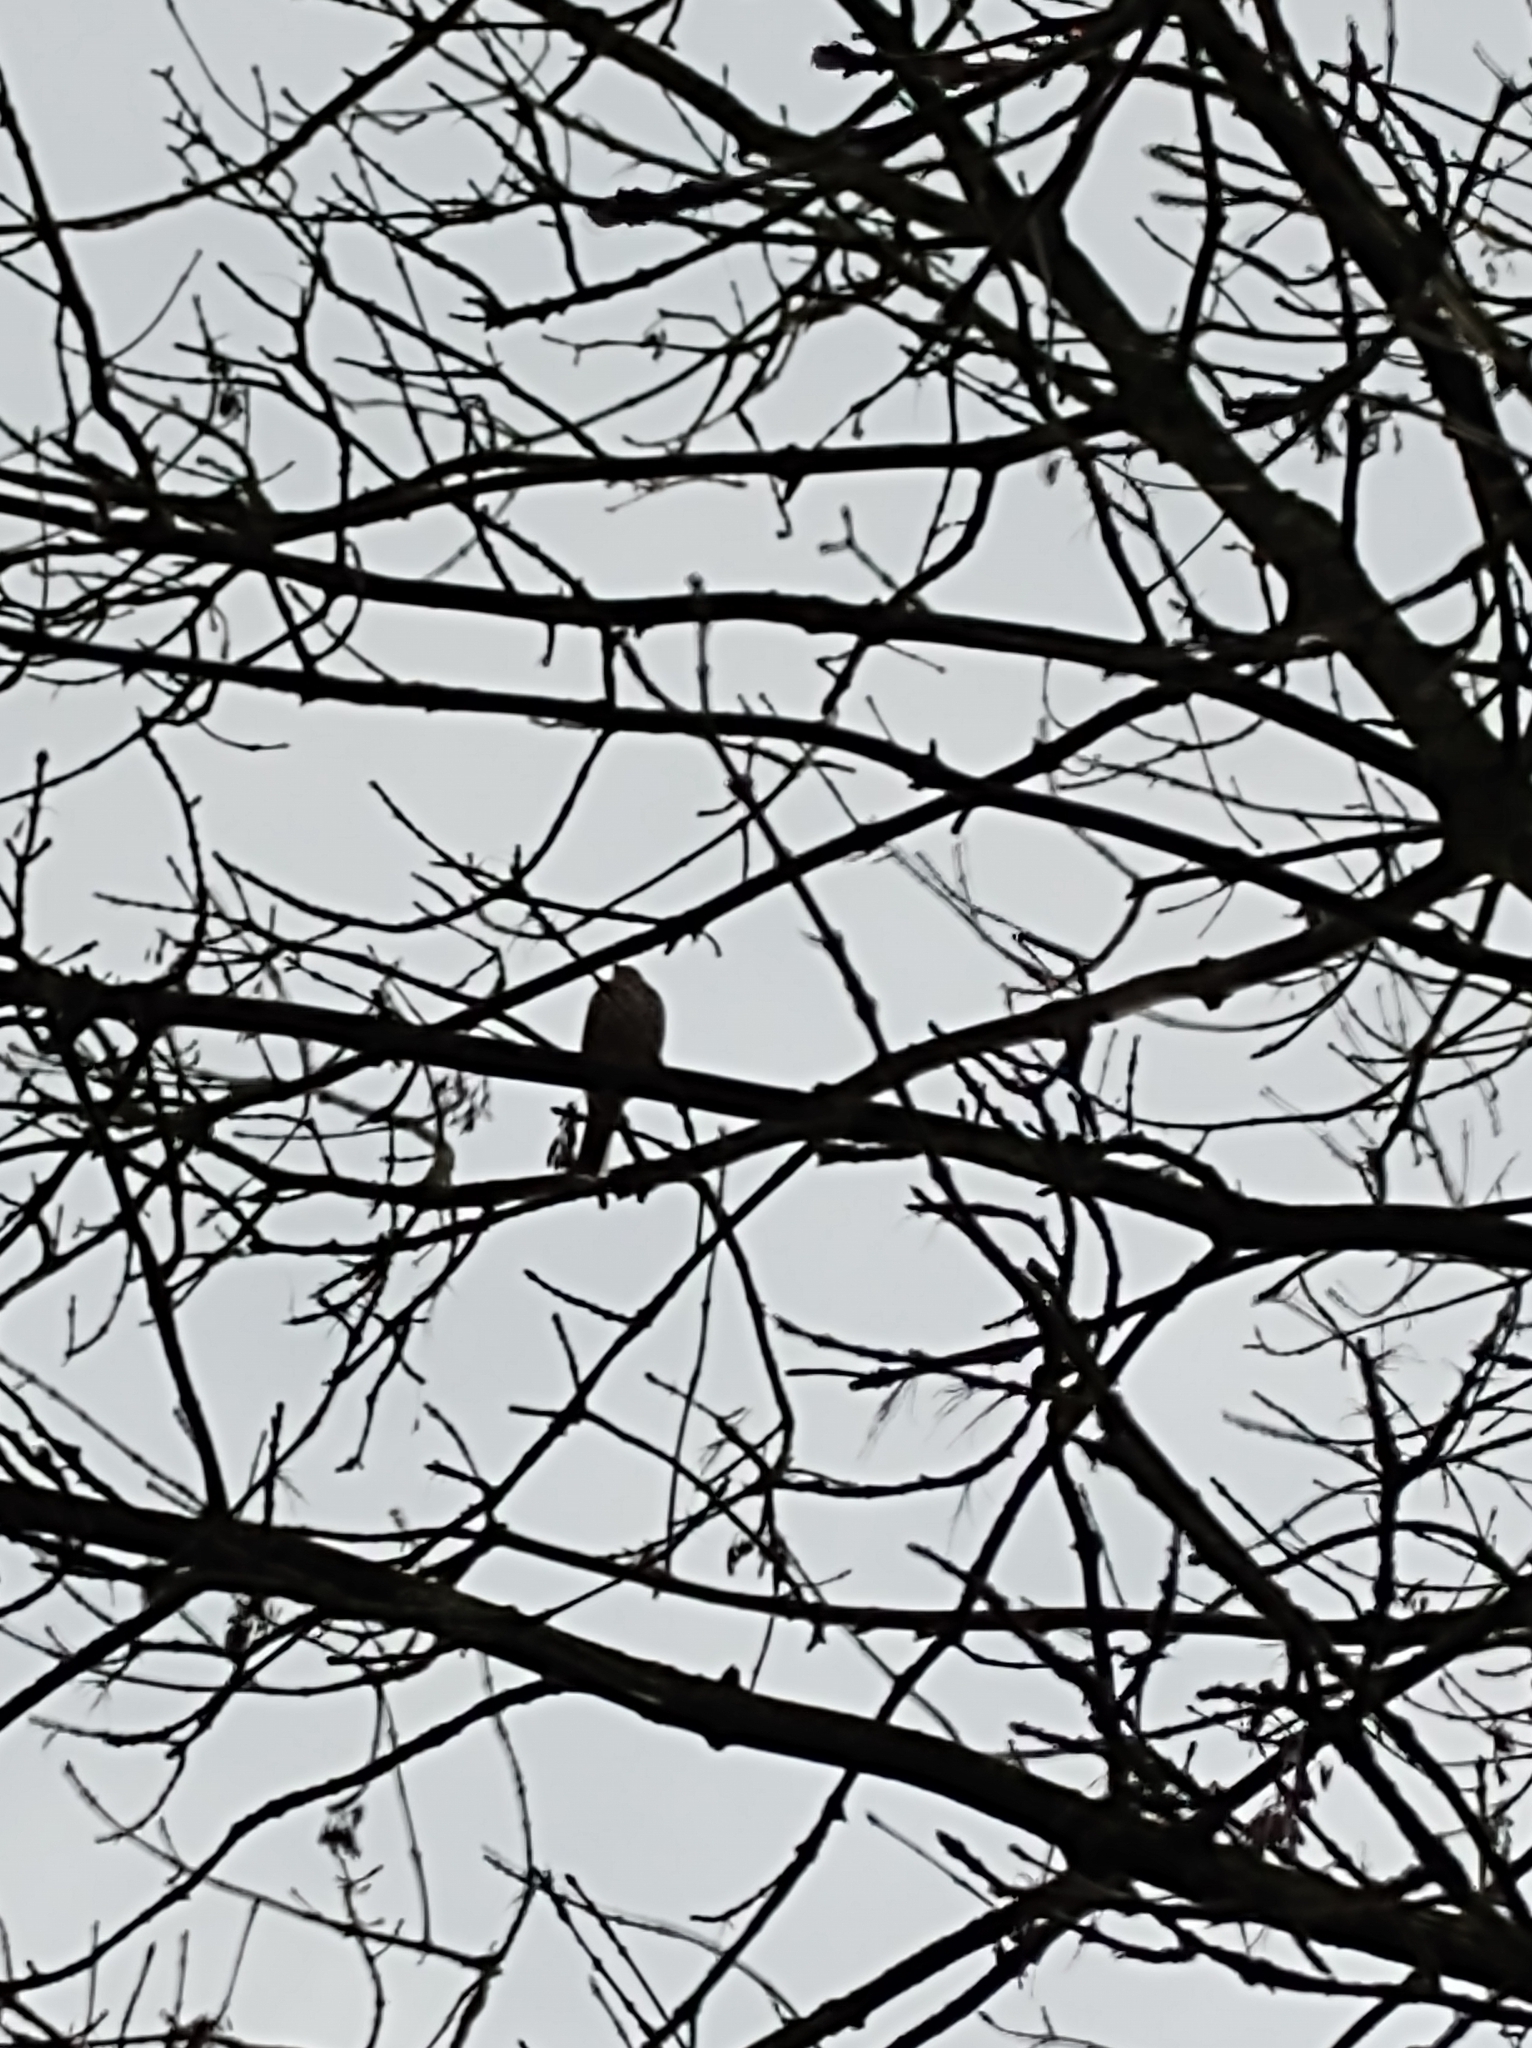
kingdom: Animalia
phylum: Chordata
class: Aves
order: Passeriformes
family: Turdidae
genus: Turdus
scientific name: Turdus viscivorus
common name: Mistle thrush
